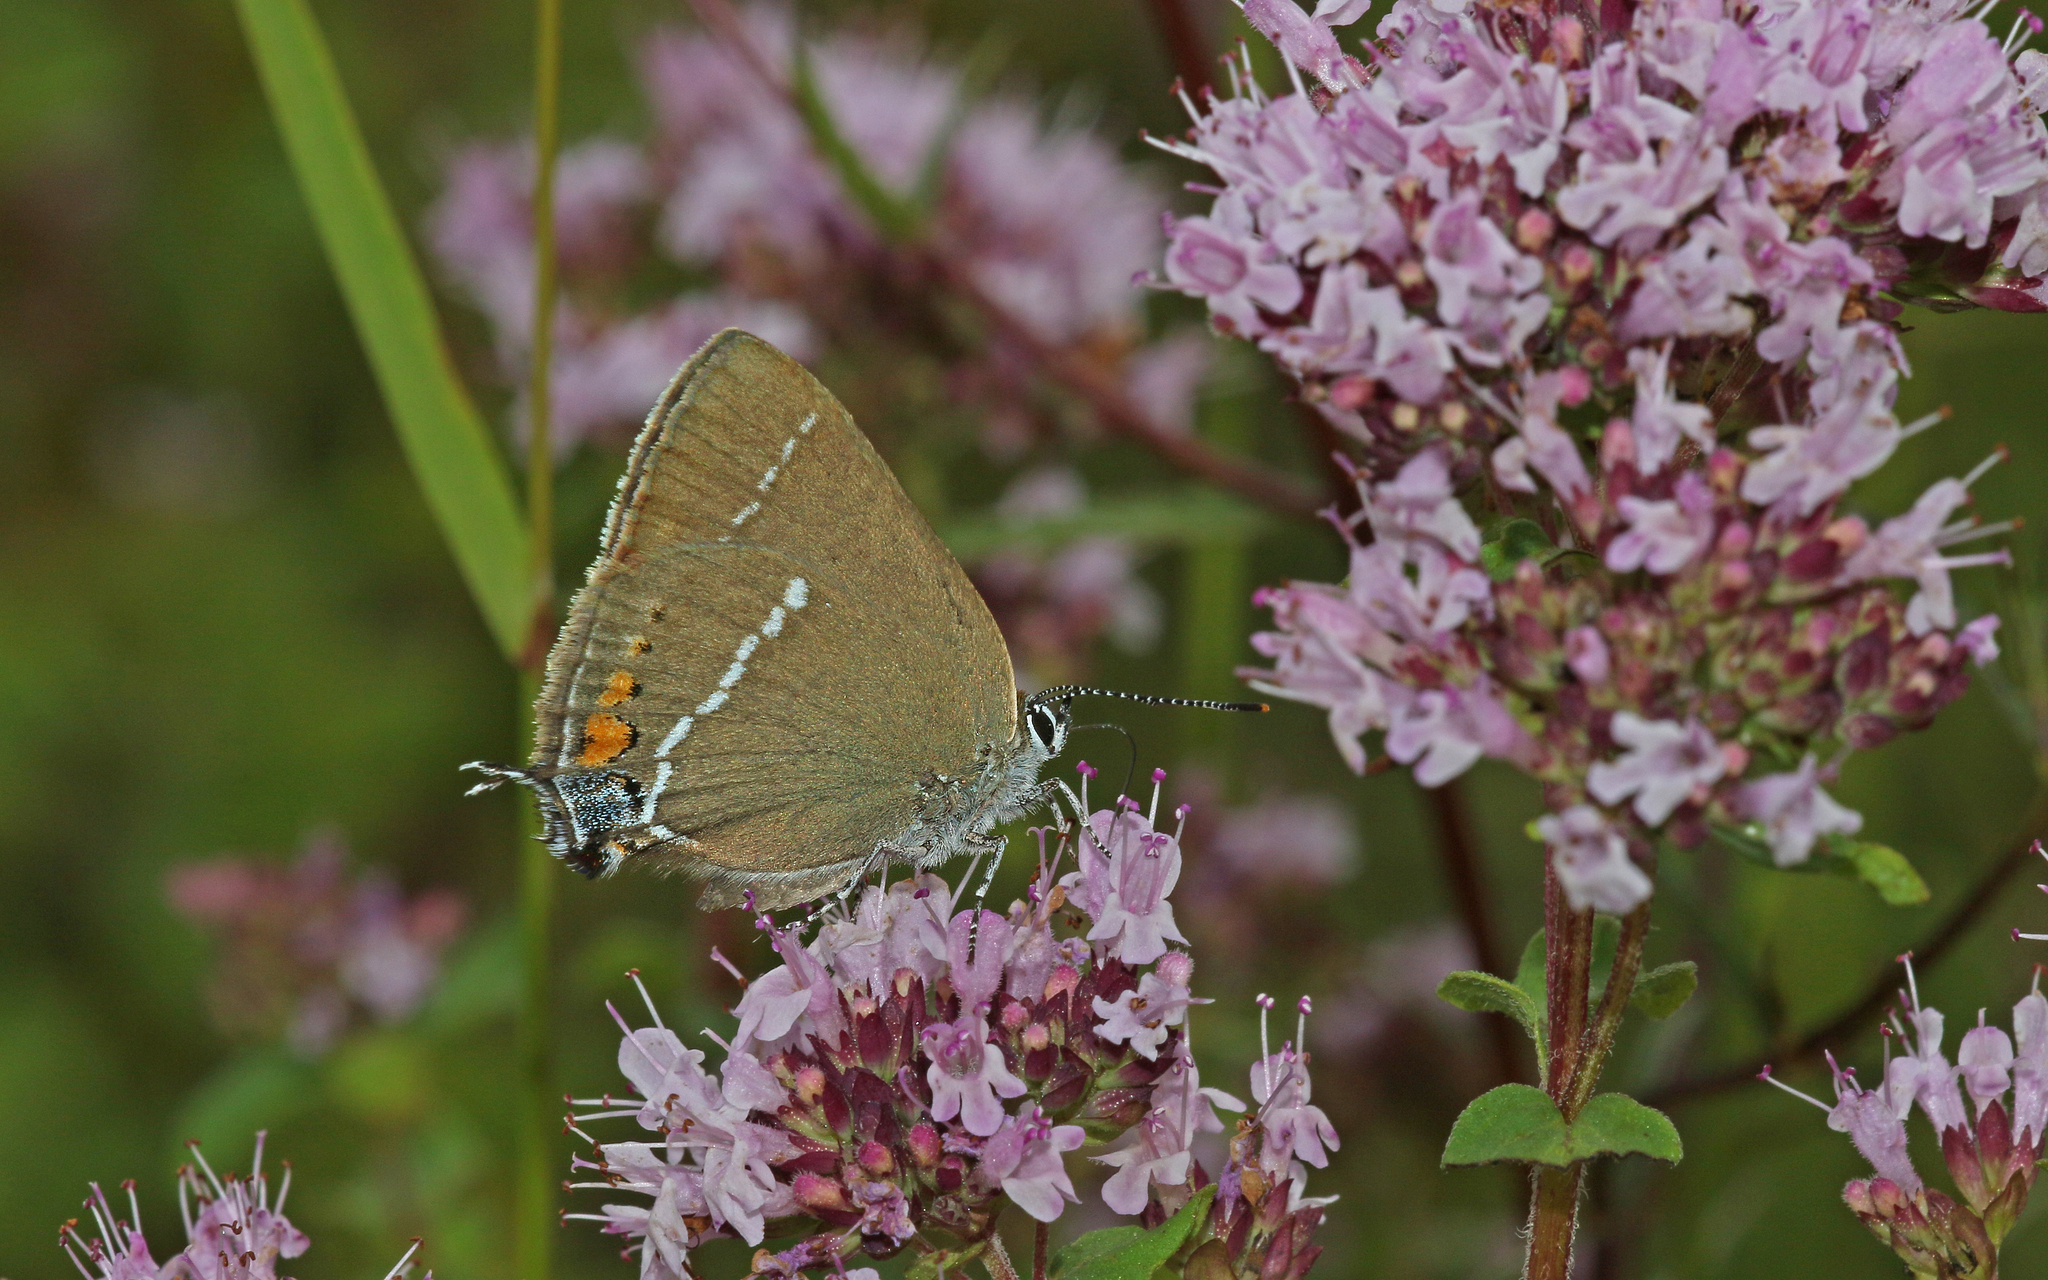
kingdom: Animalia
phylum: Arthropoda
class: Insecta
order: Lepidoptera
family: Lycaenidae
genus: Tuttiola
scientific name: Tuttiola spini
